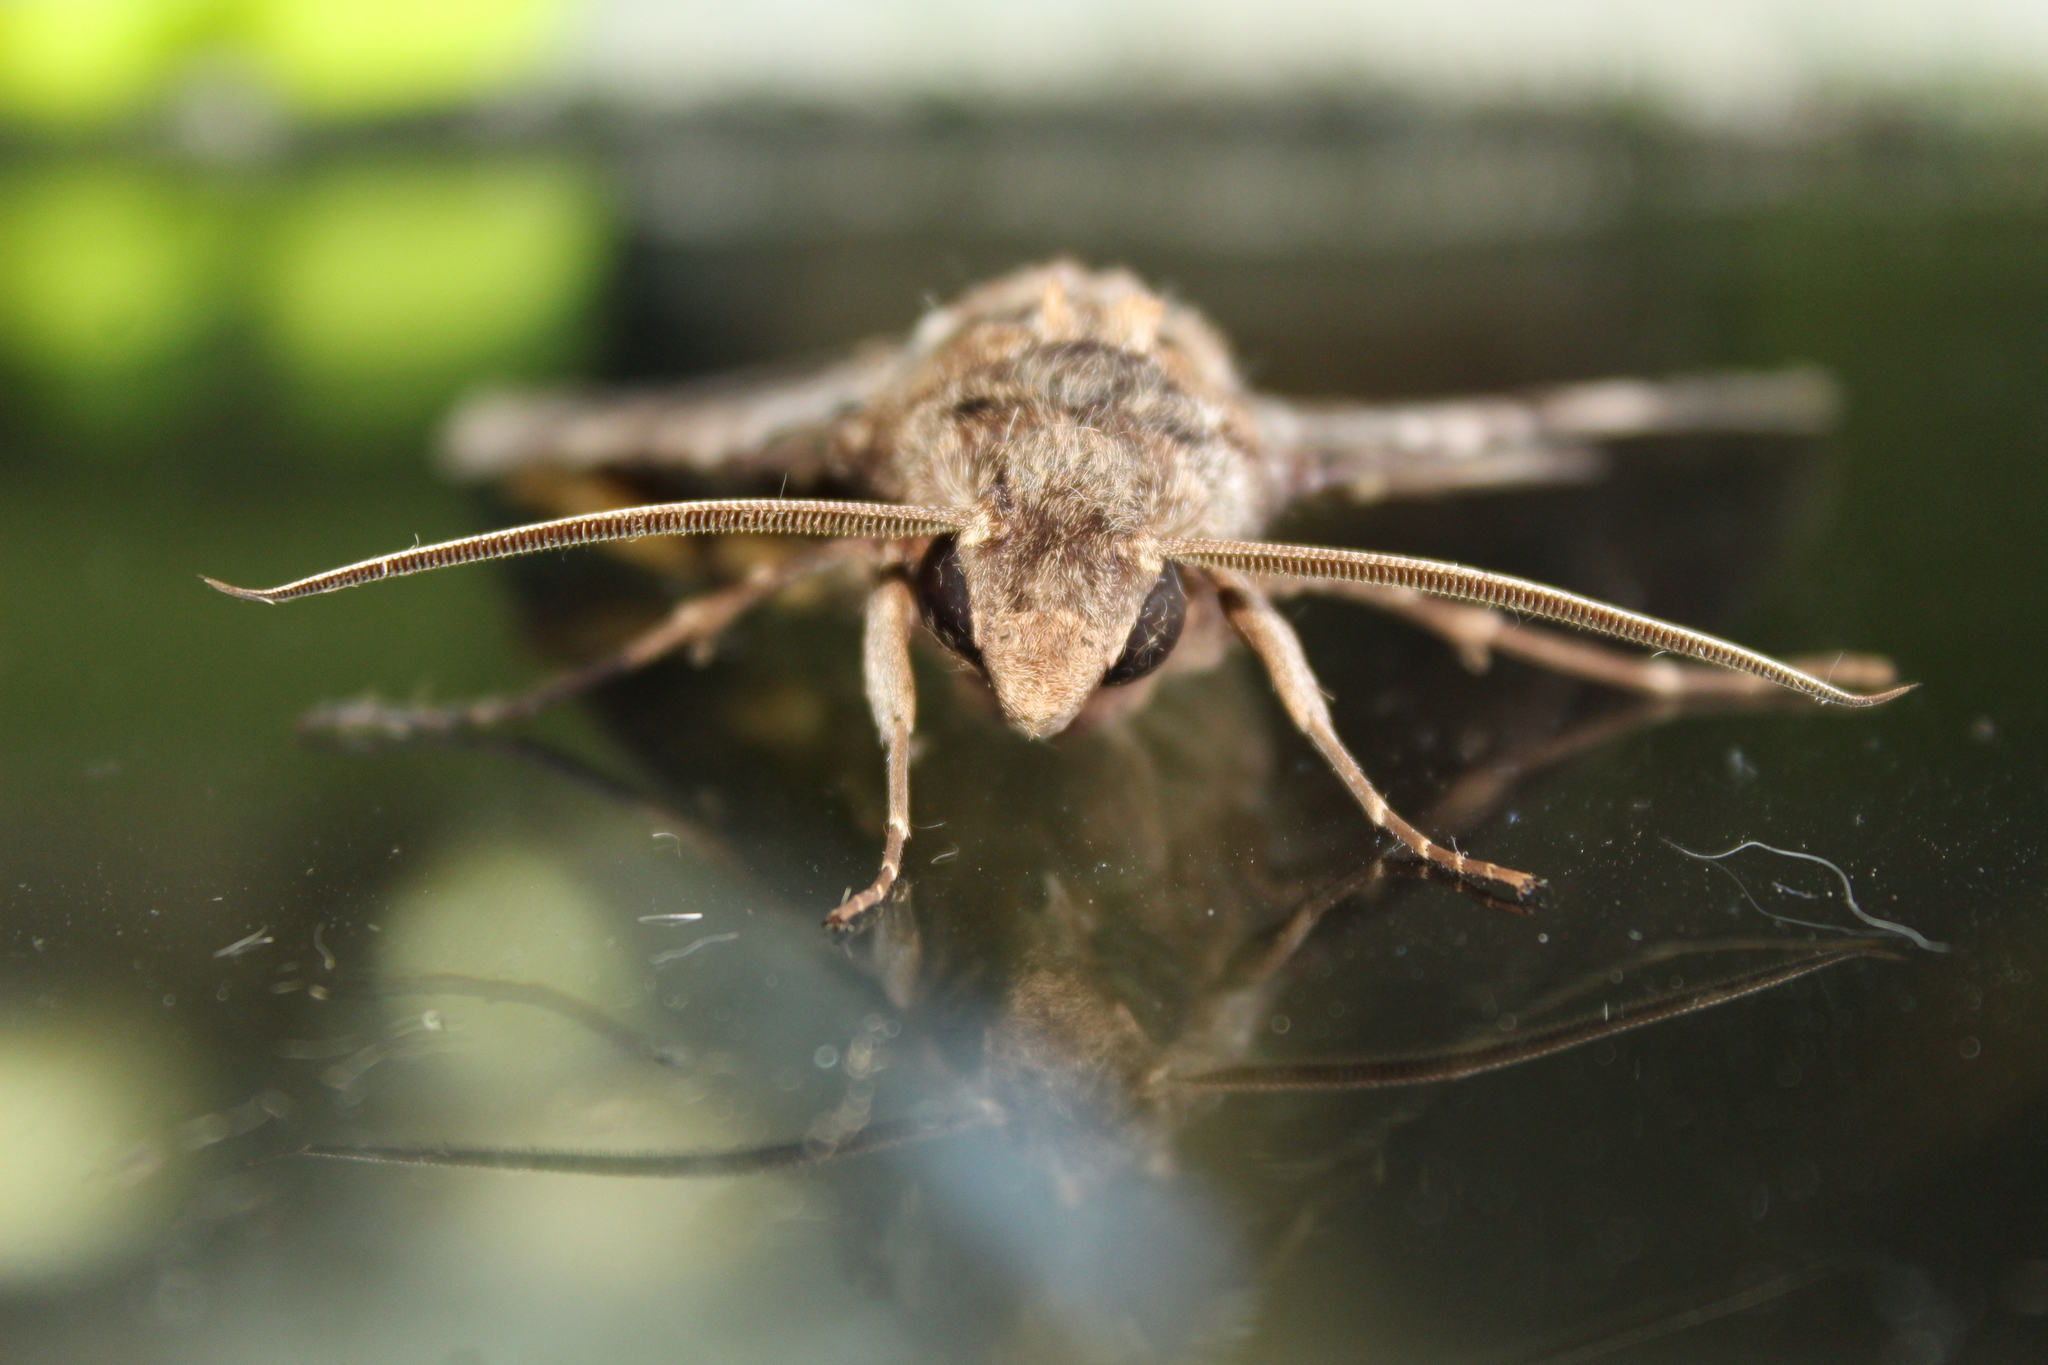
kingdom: Animalia
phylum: Arthropoda
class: Insecta
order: Lepidoptera
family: Sphingidae
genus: Pseudosphinx
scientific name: Pseudosphinx tetrio
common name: Tetrio sphinx
